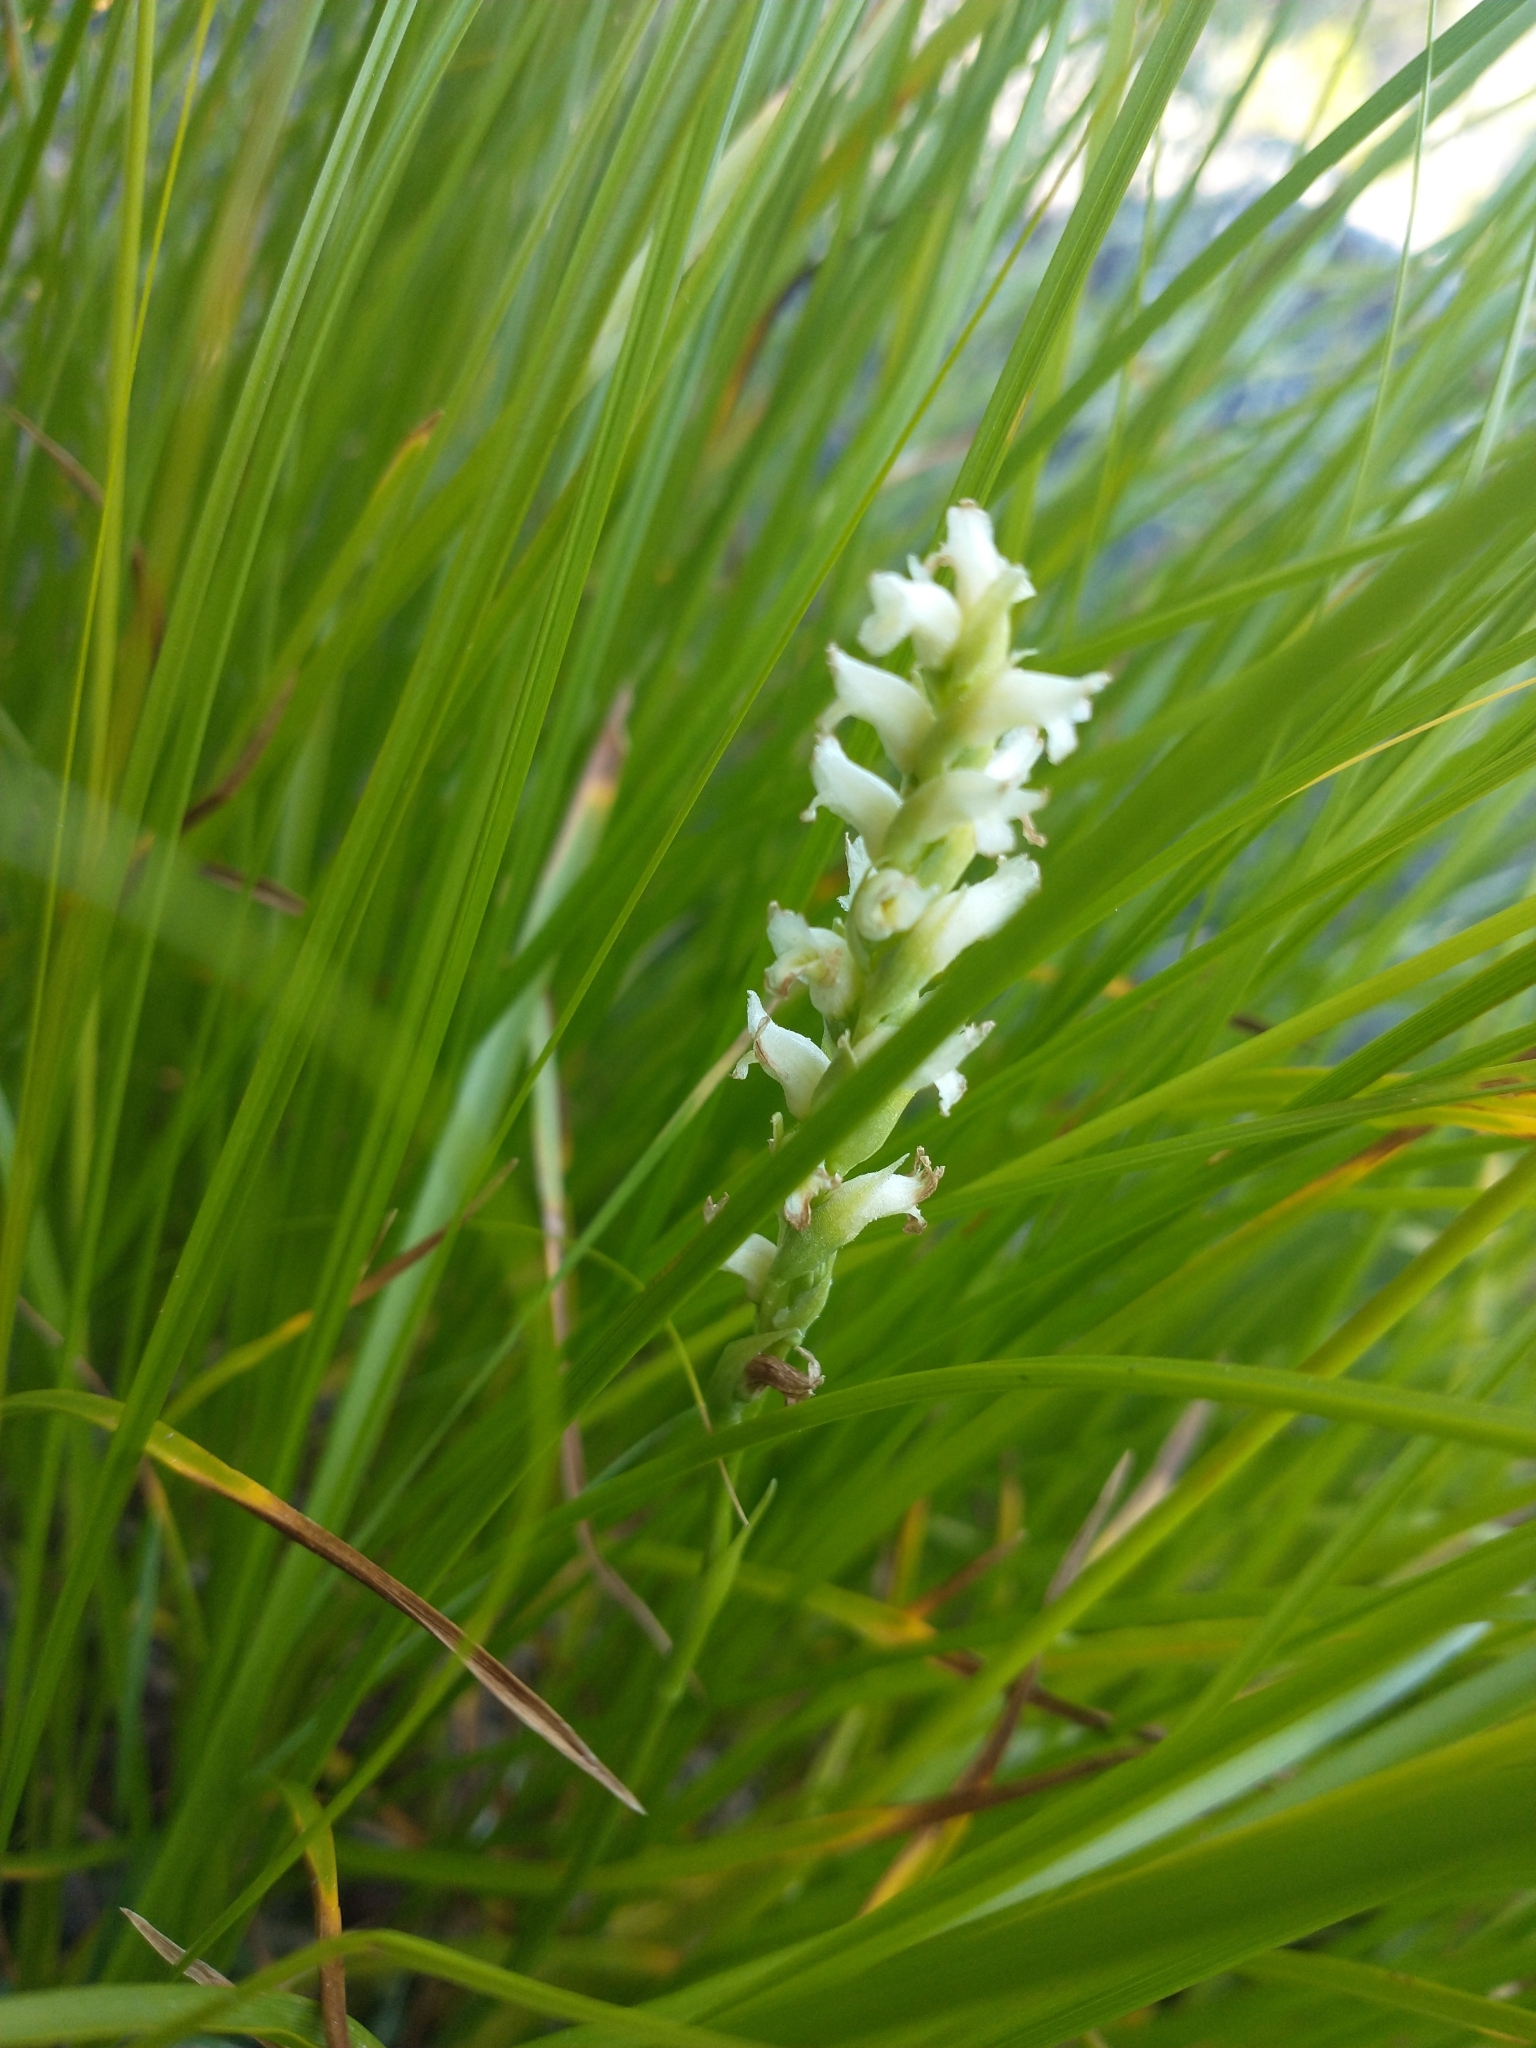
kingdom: Plantae
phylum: Tracheophyta
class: Liliopsida
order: Asparagales
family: Orchidaceae
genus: Spiranthes
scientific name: Spiranthes romanzoffiana
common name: Irish lady's-tresses
